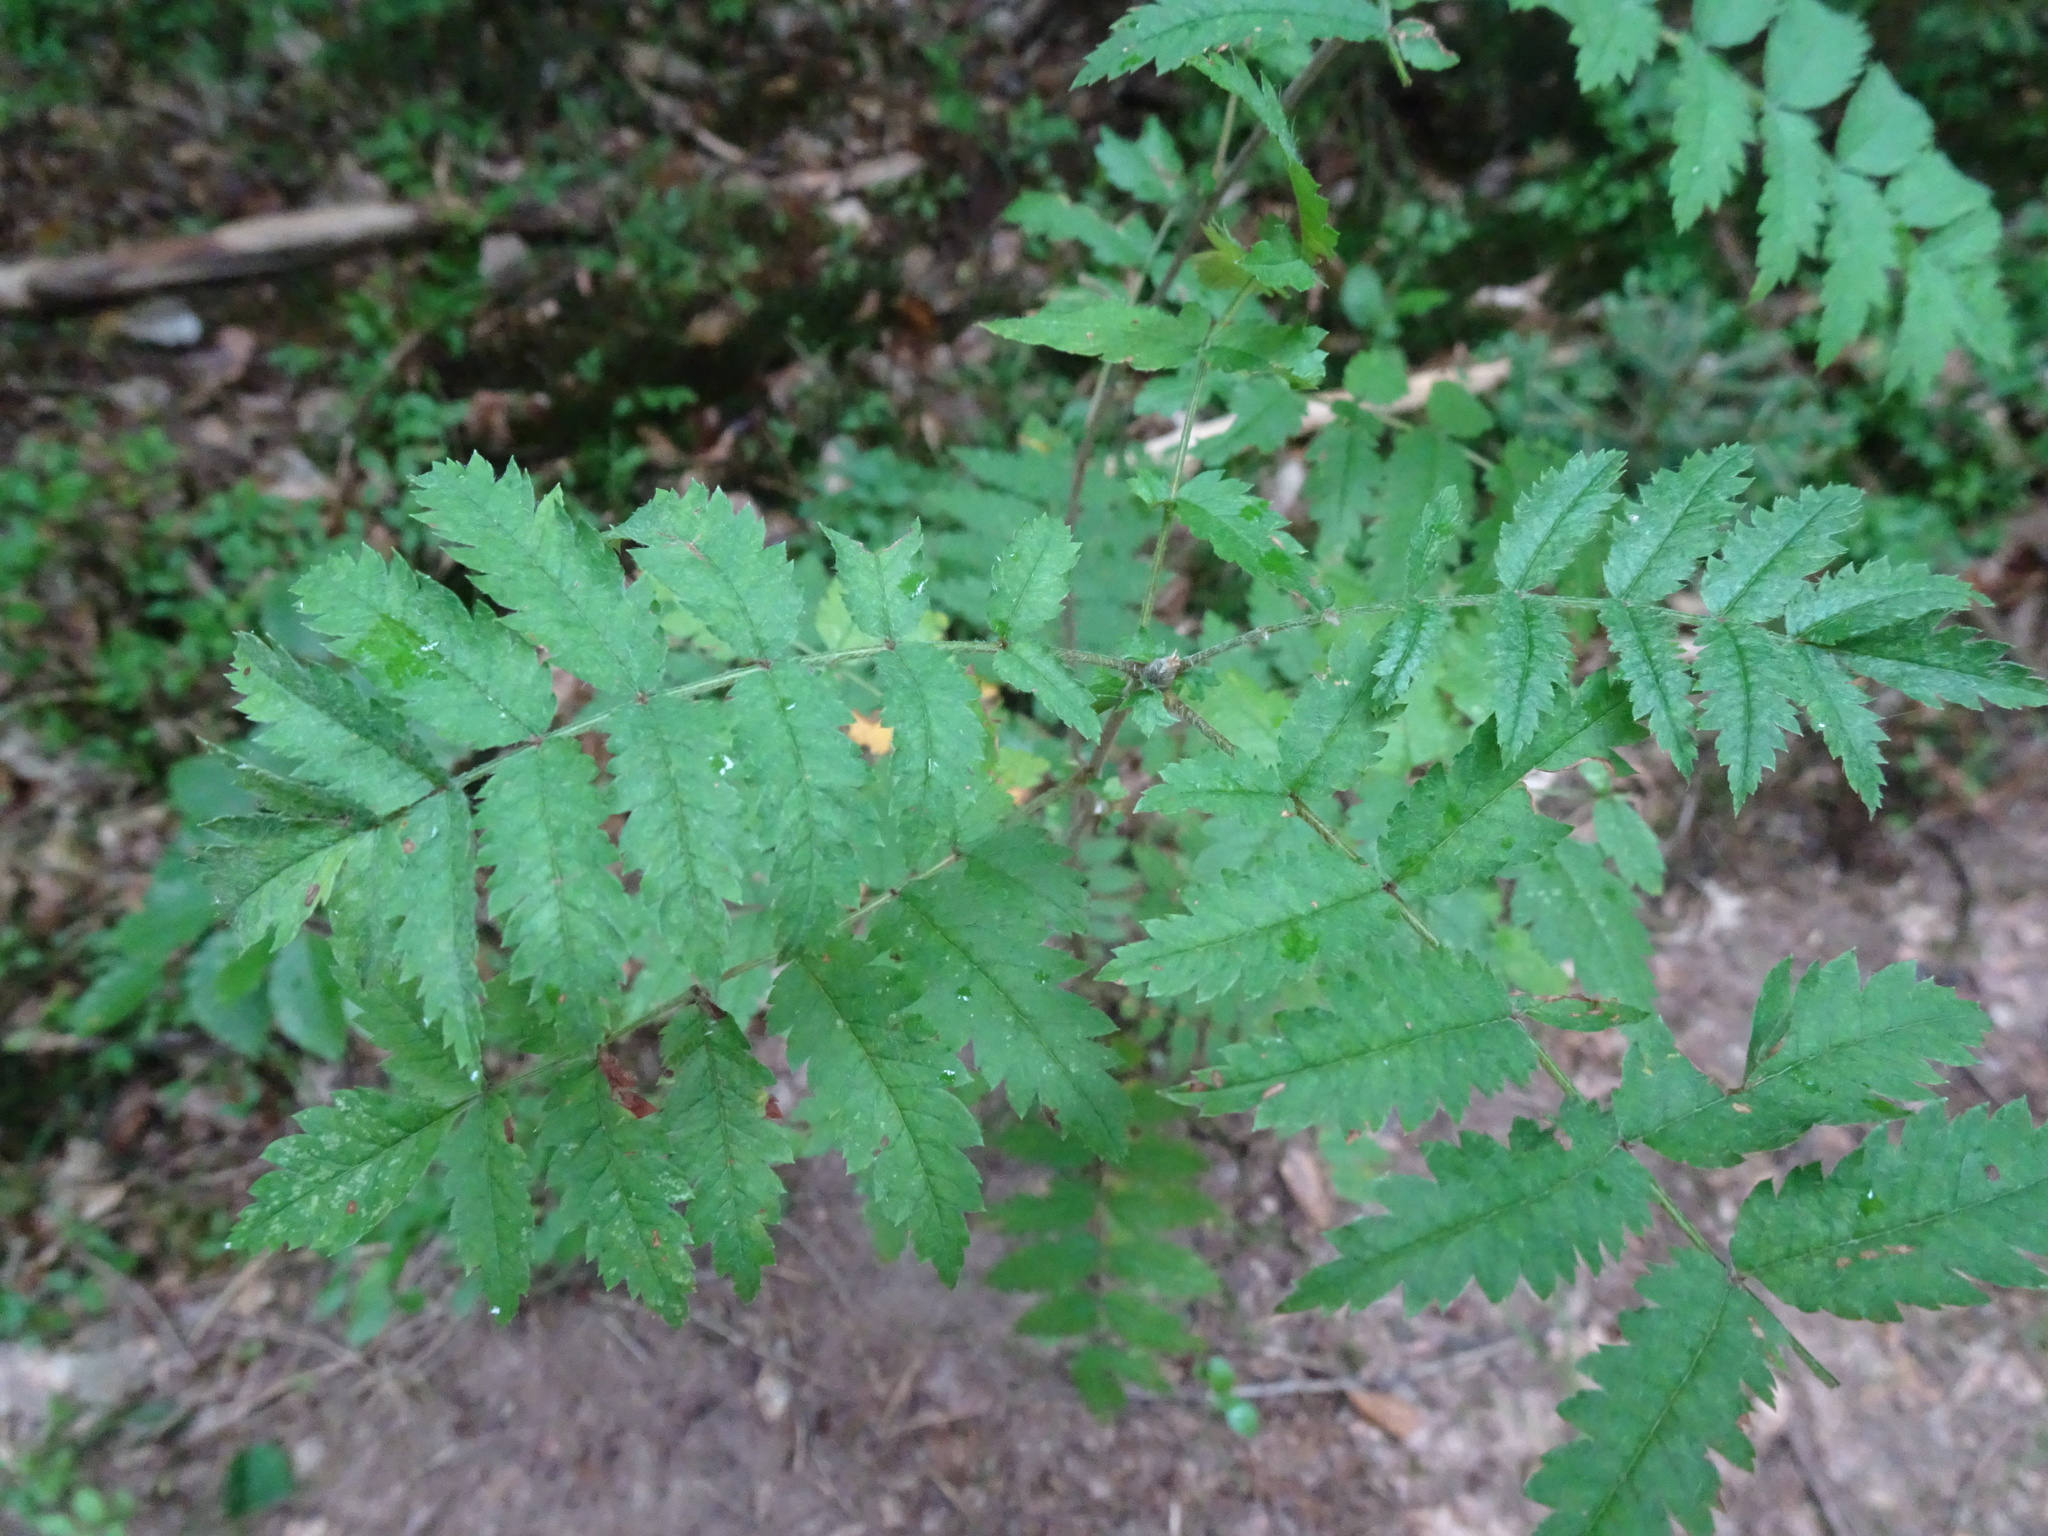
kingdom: Plantae
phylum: Tracheophyta
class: Magnoliopsida
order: Rosales
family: Rosaceae
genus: Sorbus
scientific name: Sorbus aucuparia
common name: Rowan
